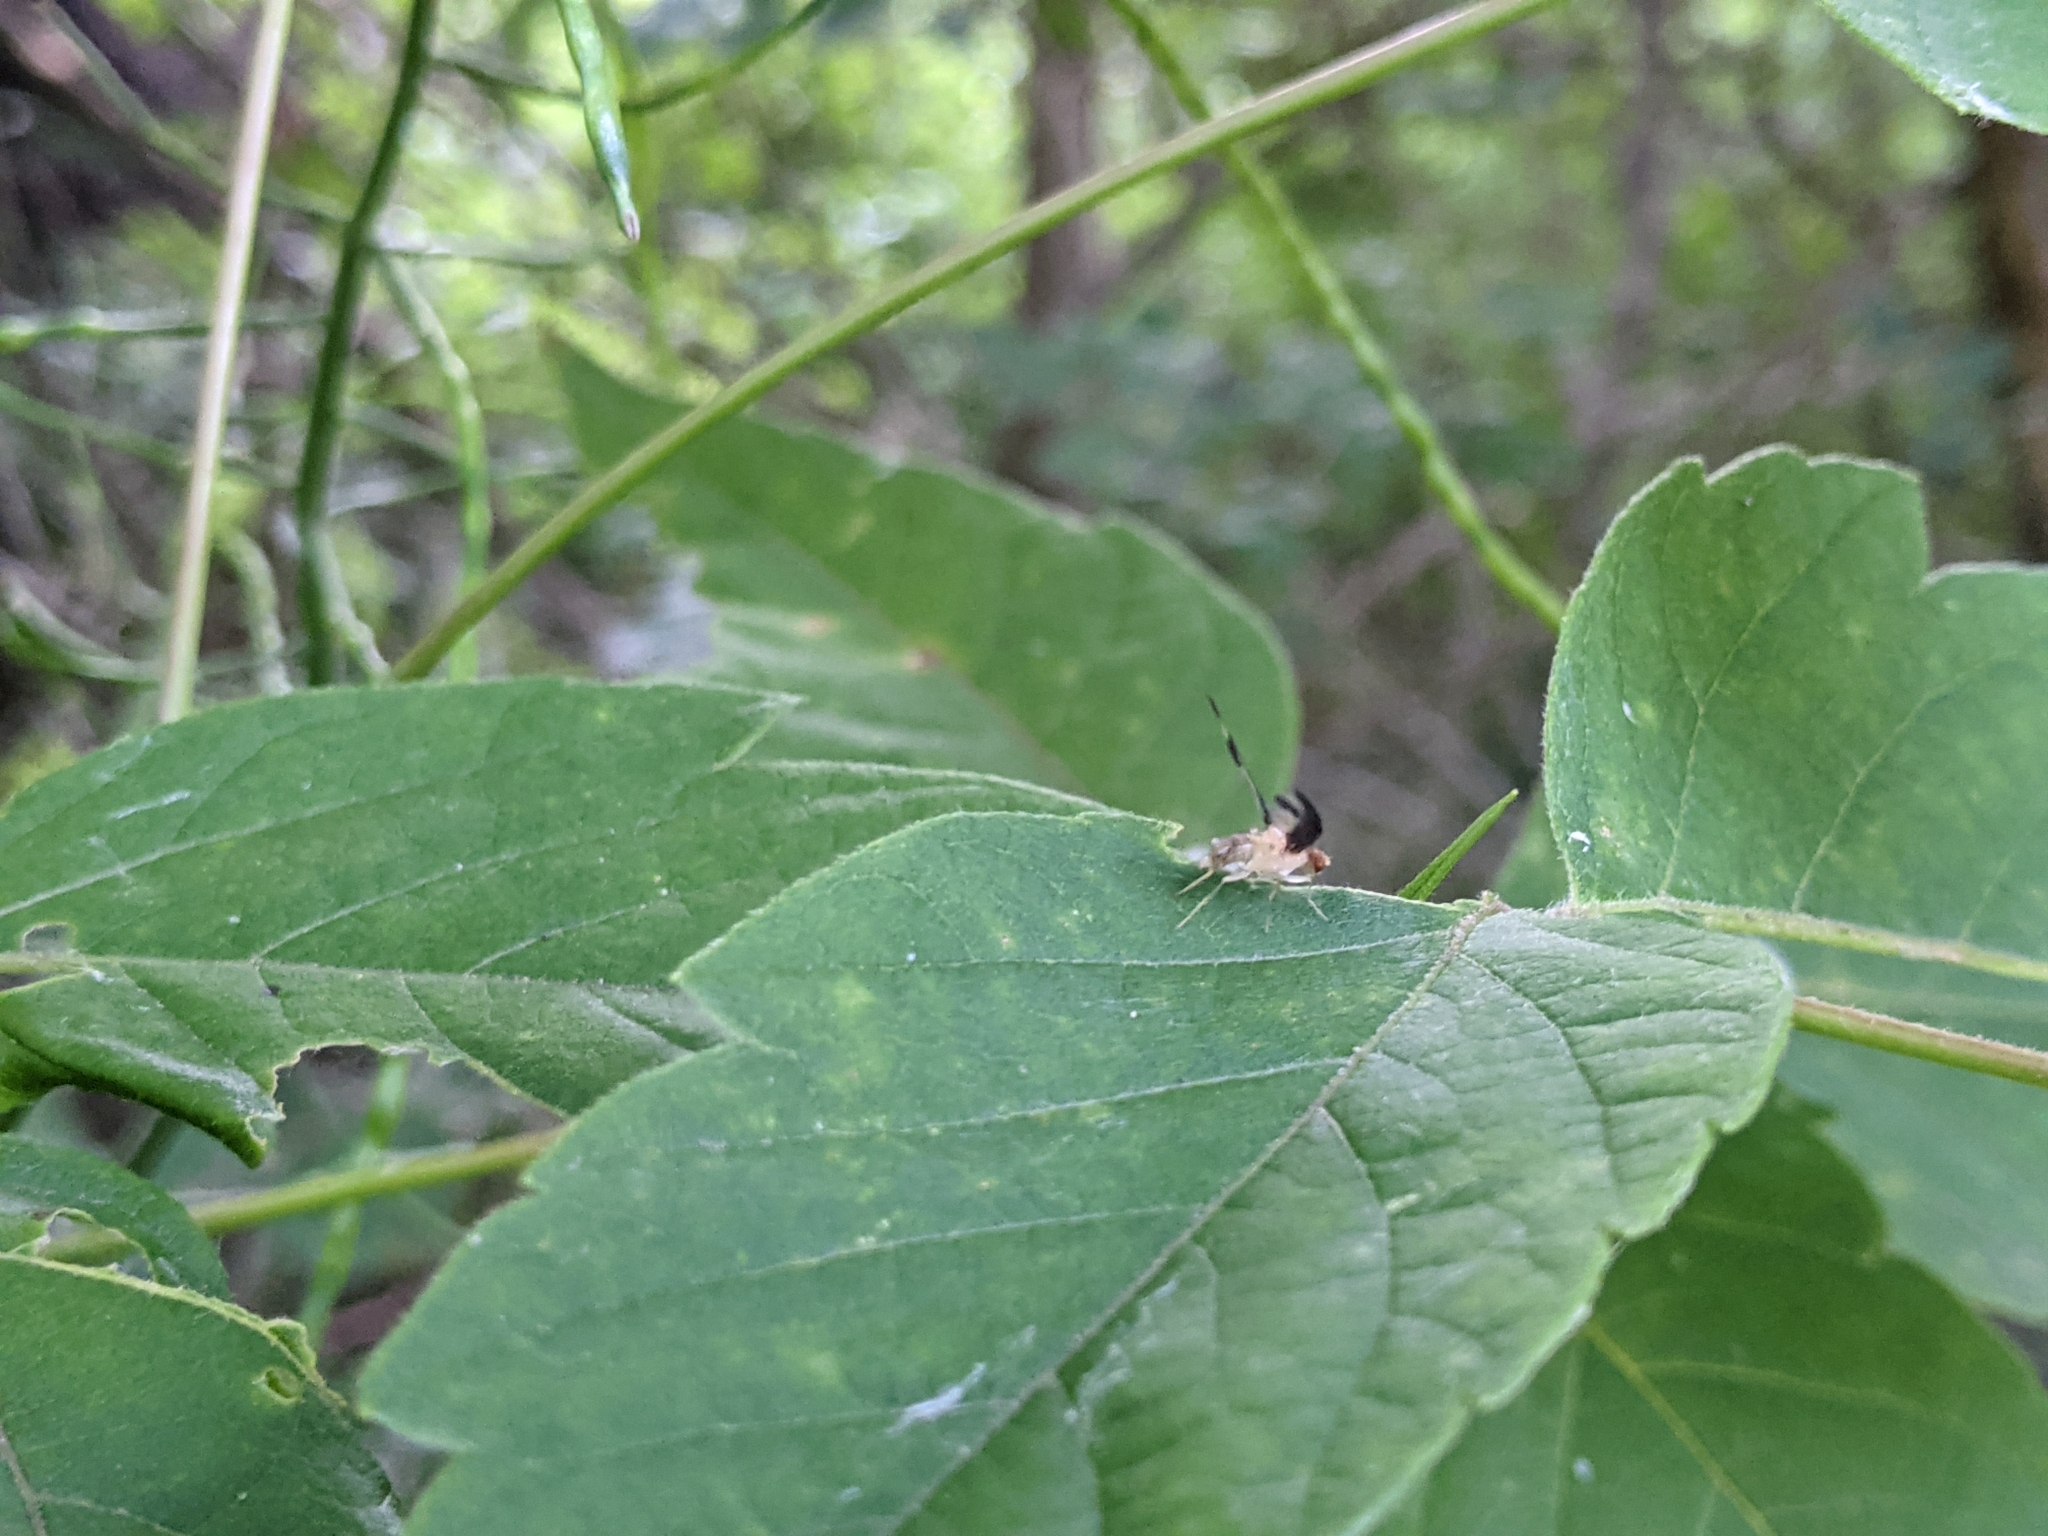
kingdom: Animalia
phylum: Arthropoda
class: Insecta
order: Diptera
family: Pallopteridae
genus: Toxonevra
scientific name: Toxonevra superba
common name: Antlered flutter fly
